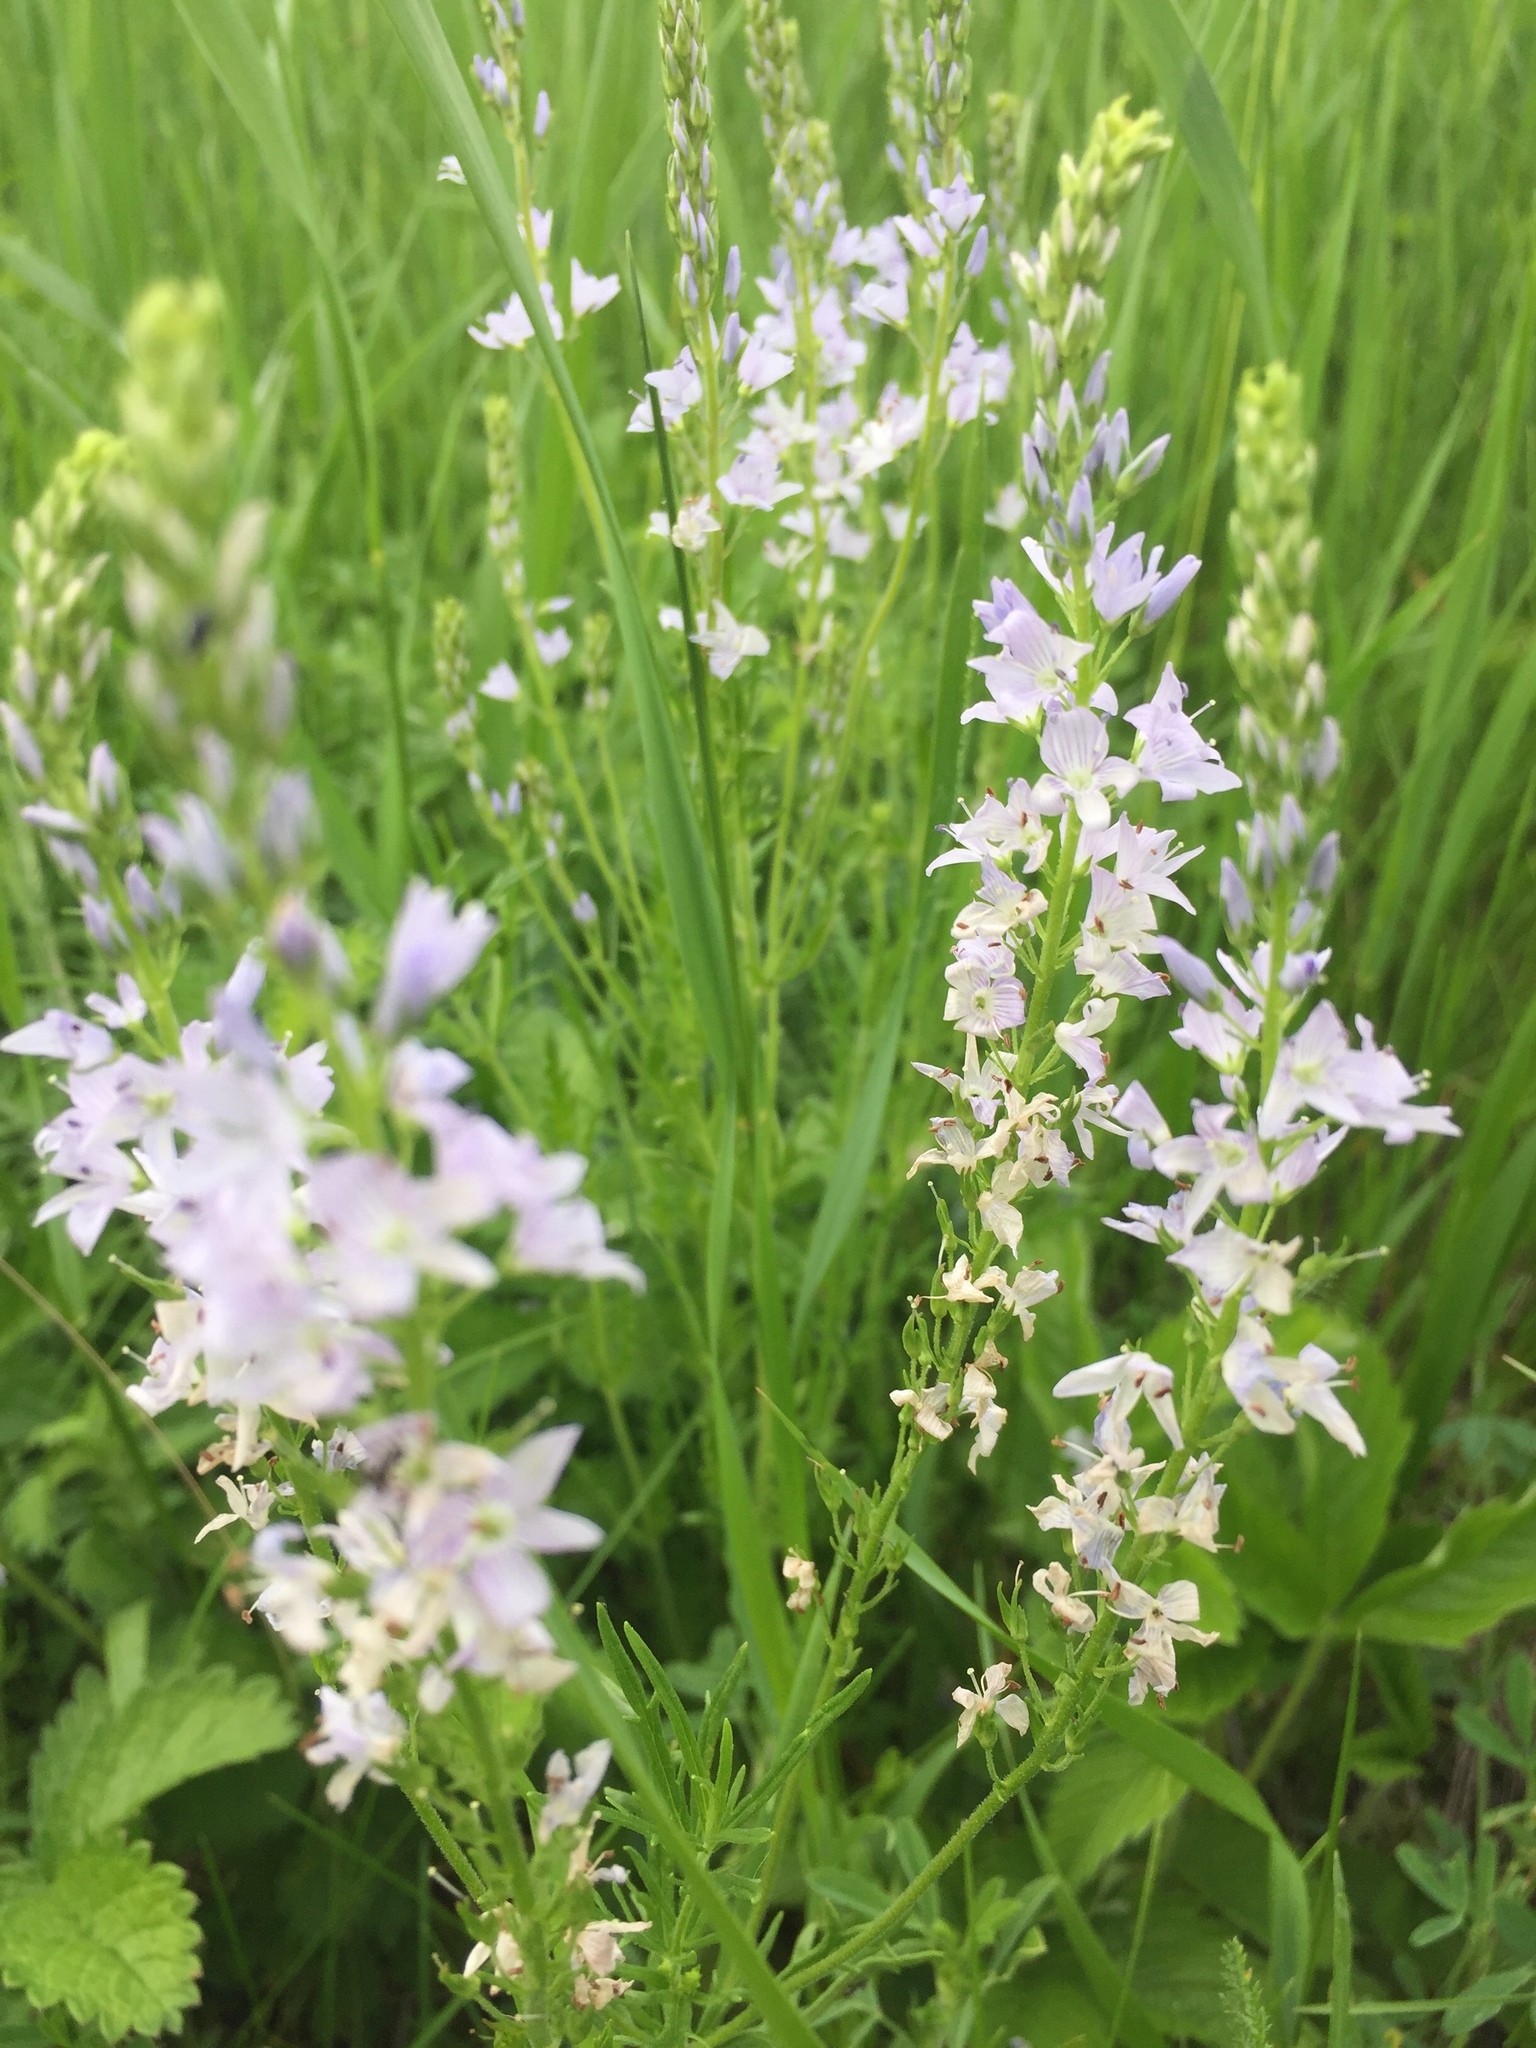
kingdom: Plantae
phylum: Tracheophyta
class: Magnoliopsida
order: Lamiales
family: Plantaginaceae
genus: Veronica
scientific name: Veronica austriaca
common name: Large speedwell
